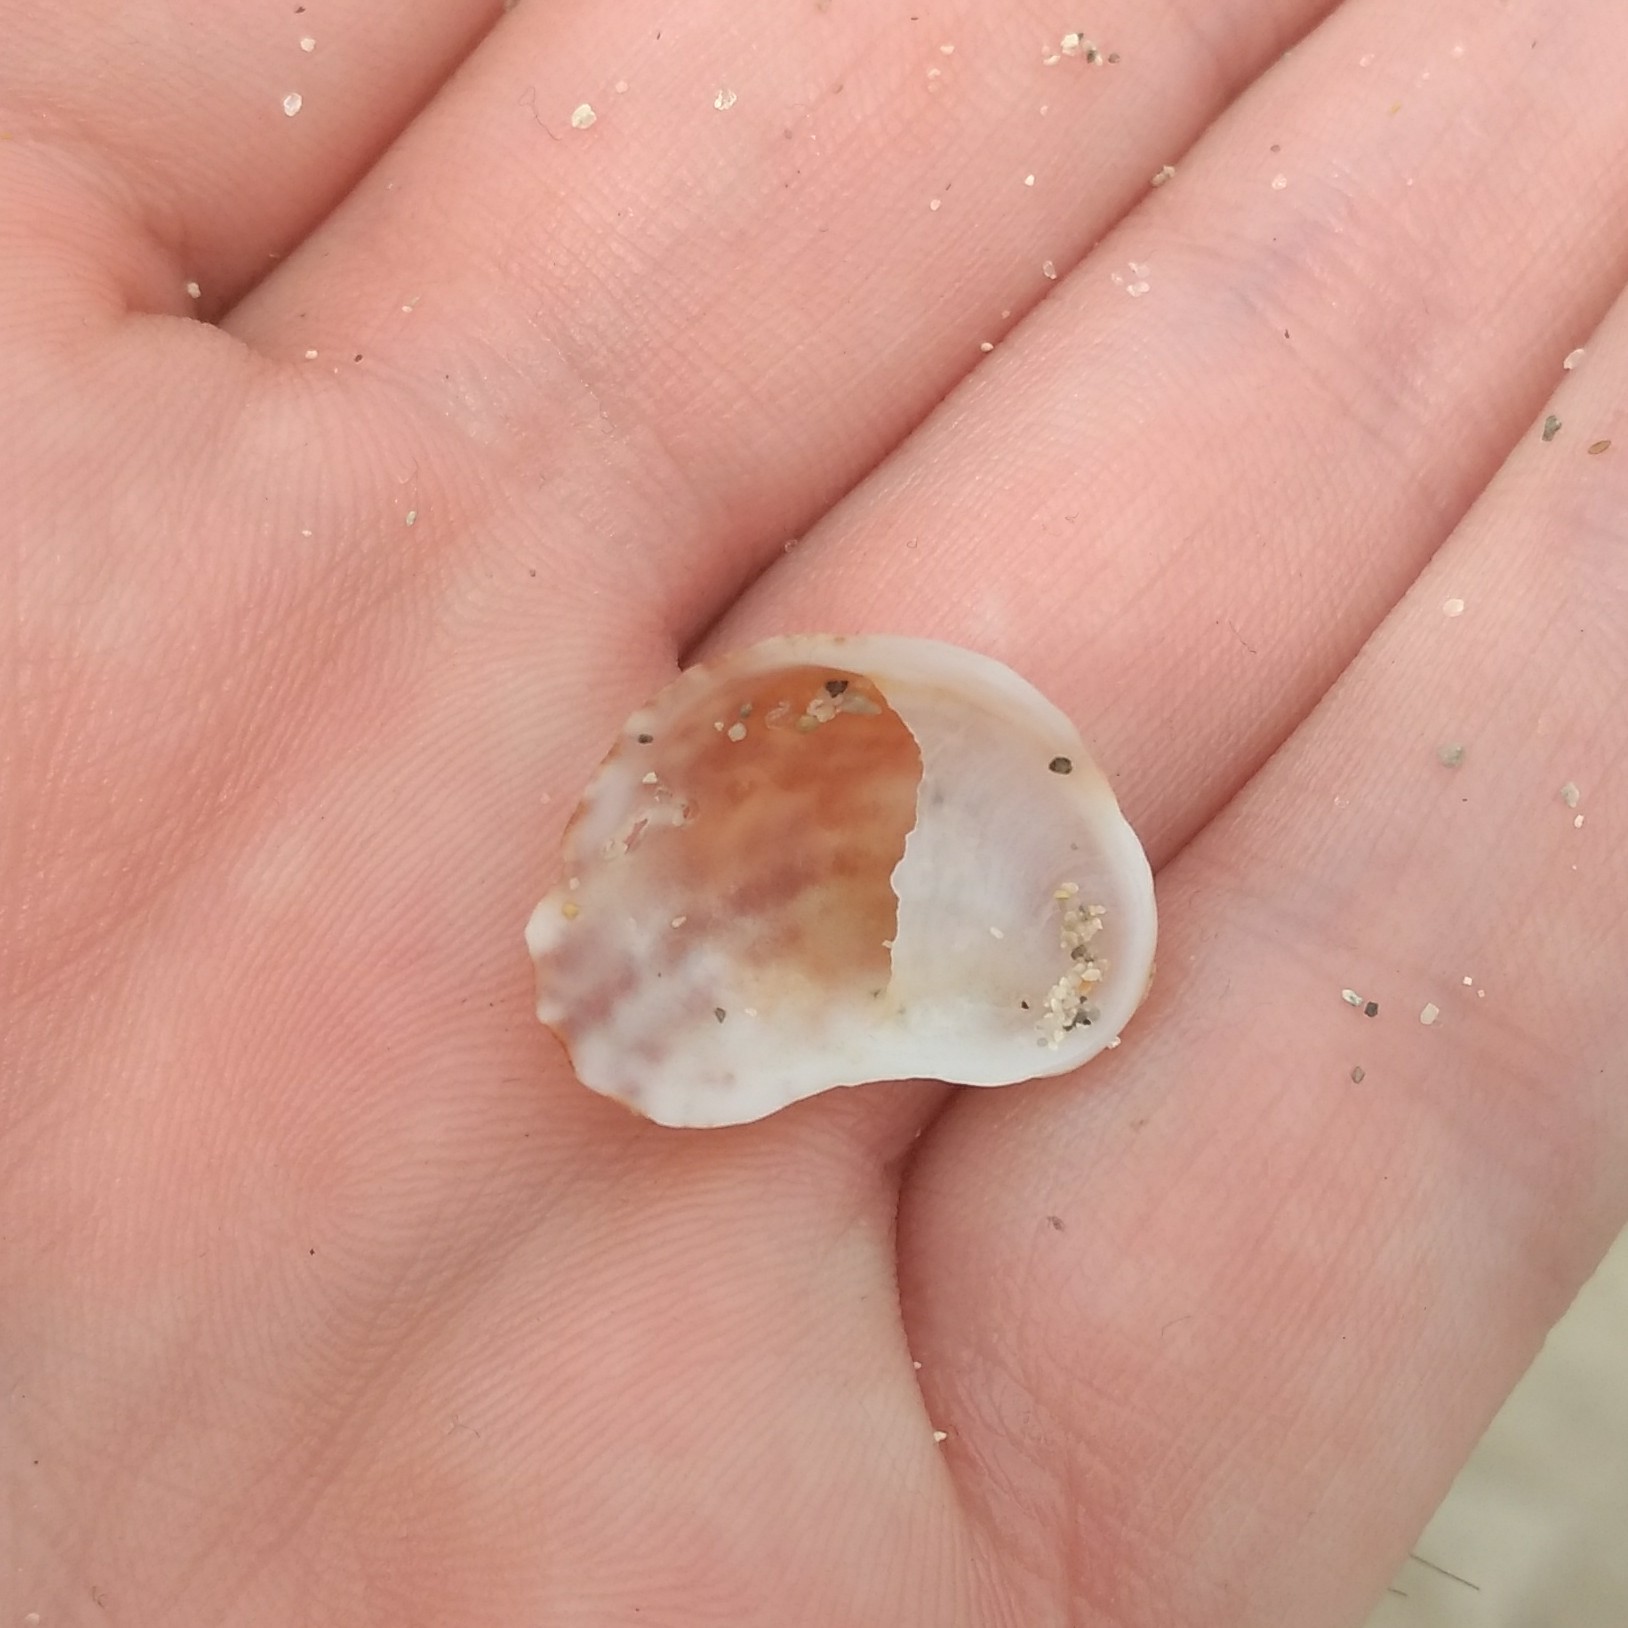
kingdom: Animalia
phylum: Mollusca
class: Gastropoda
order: Littorinimorpha
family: Calyptraeidae
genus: Bostrycapulus
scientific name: Bostrycapulus aculeatus
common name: Spiny slippersnail
